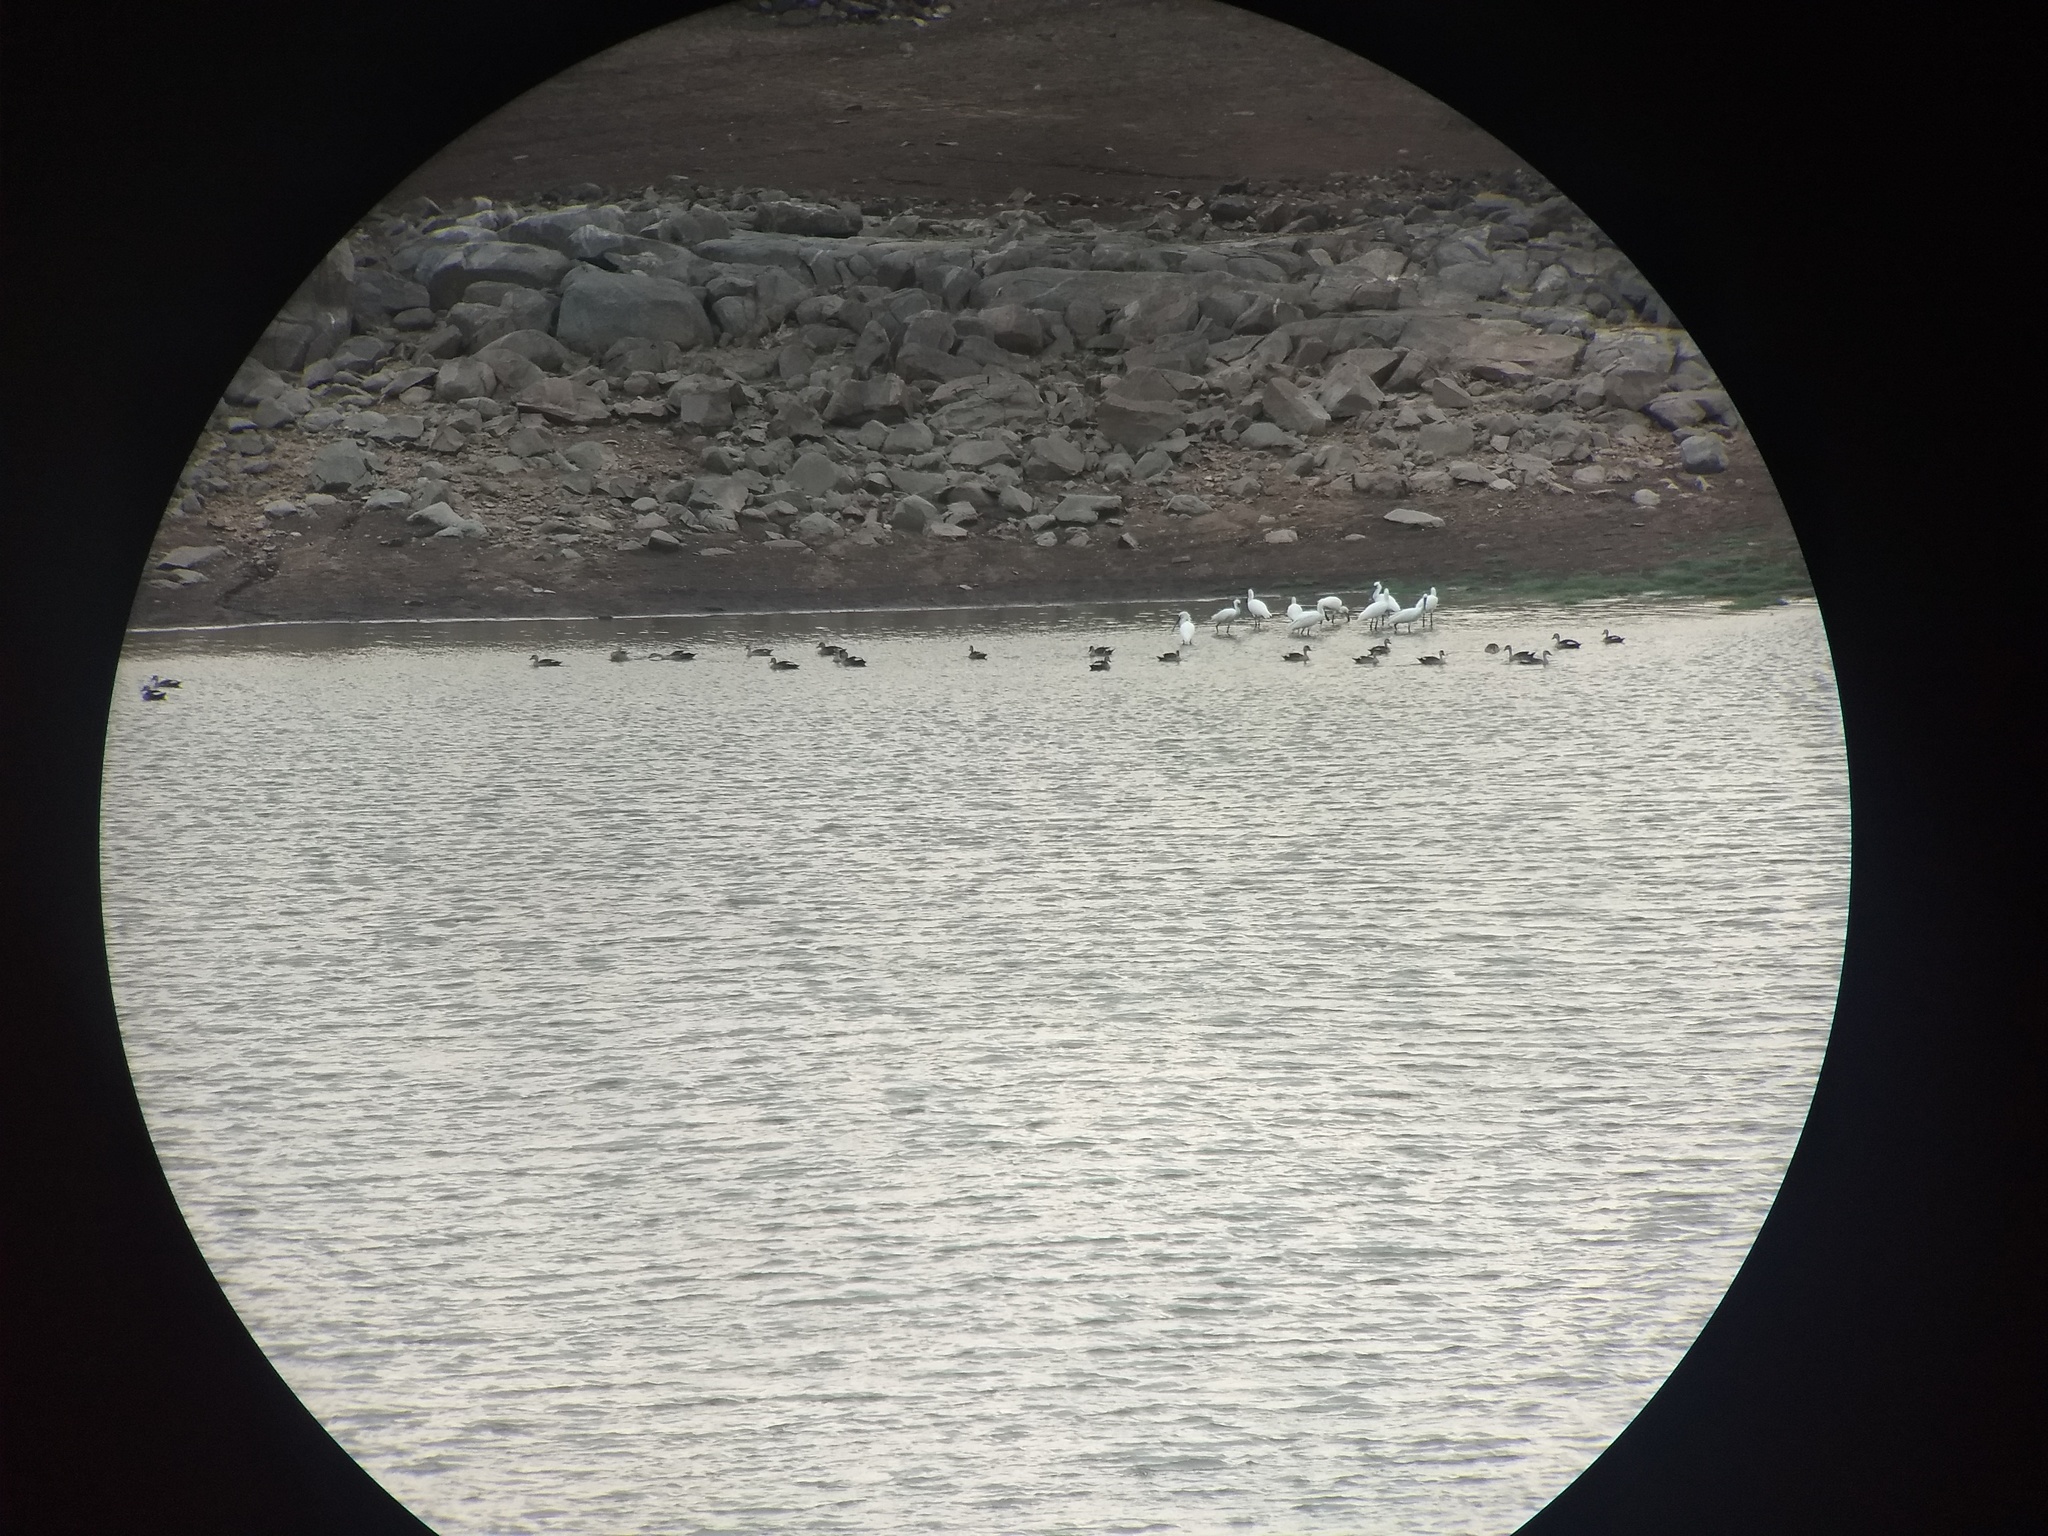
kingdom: Animalia
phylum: Chordata
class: Aves
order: Anseriformes
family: Anatidae
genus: Anas
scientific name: Anas poecilorhyncha
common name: Indian spot-billed duck
